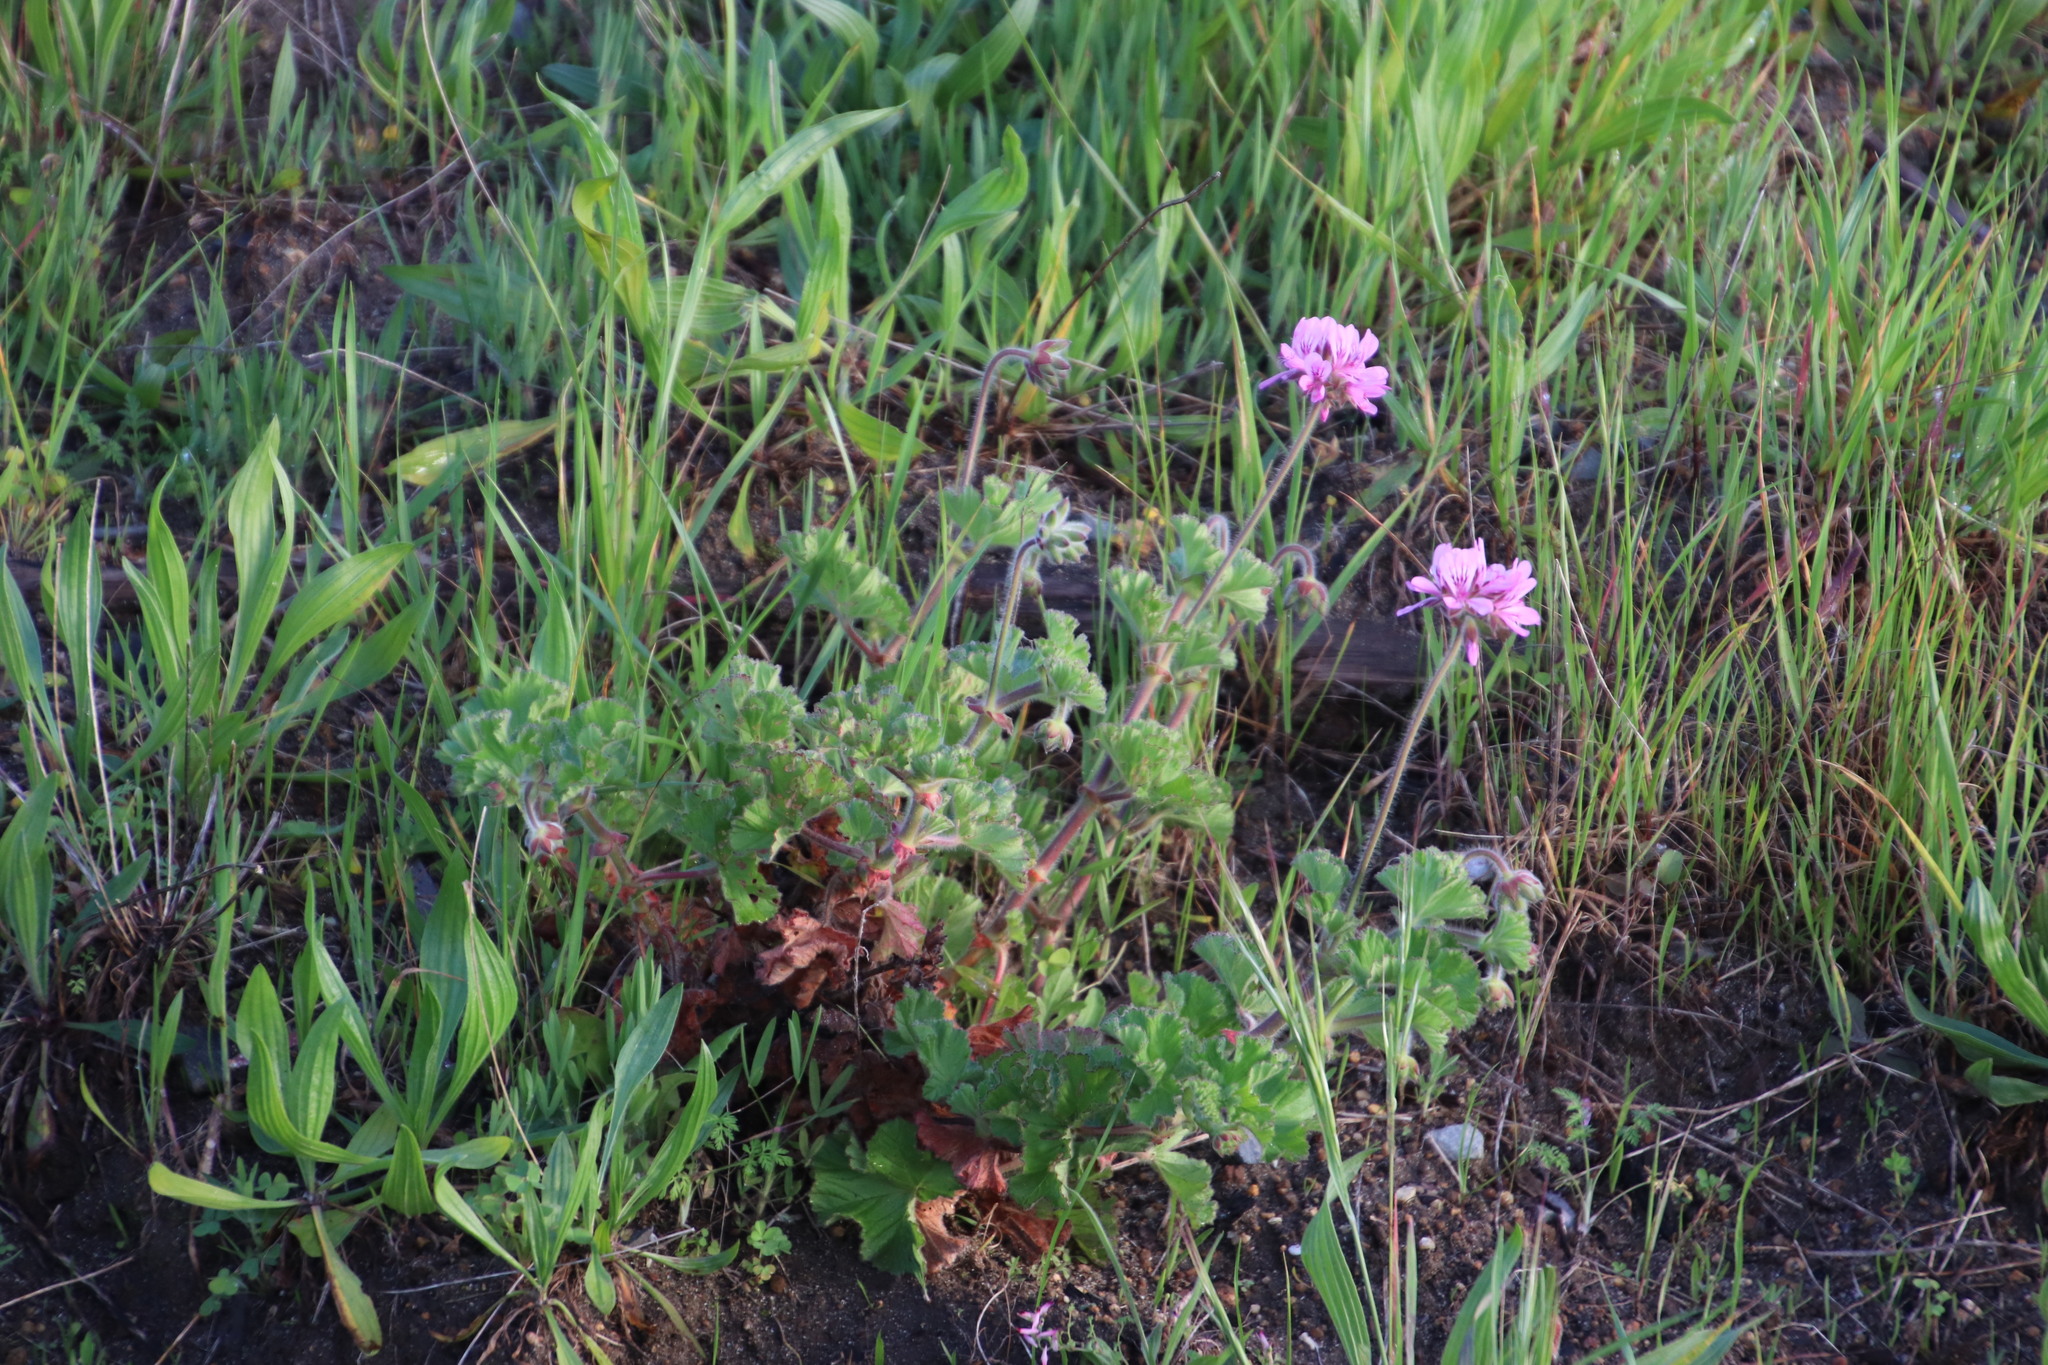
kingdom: Plantae
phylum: Tracheophyta
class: Magnoliopsida
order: Geraniales
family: Geraniaceae
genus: Pelargonium
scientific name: Pelargonium capitatum
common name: Rose scented geranium
